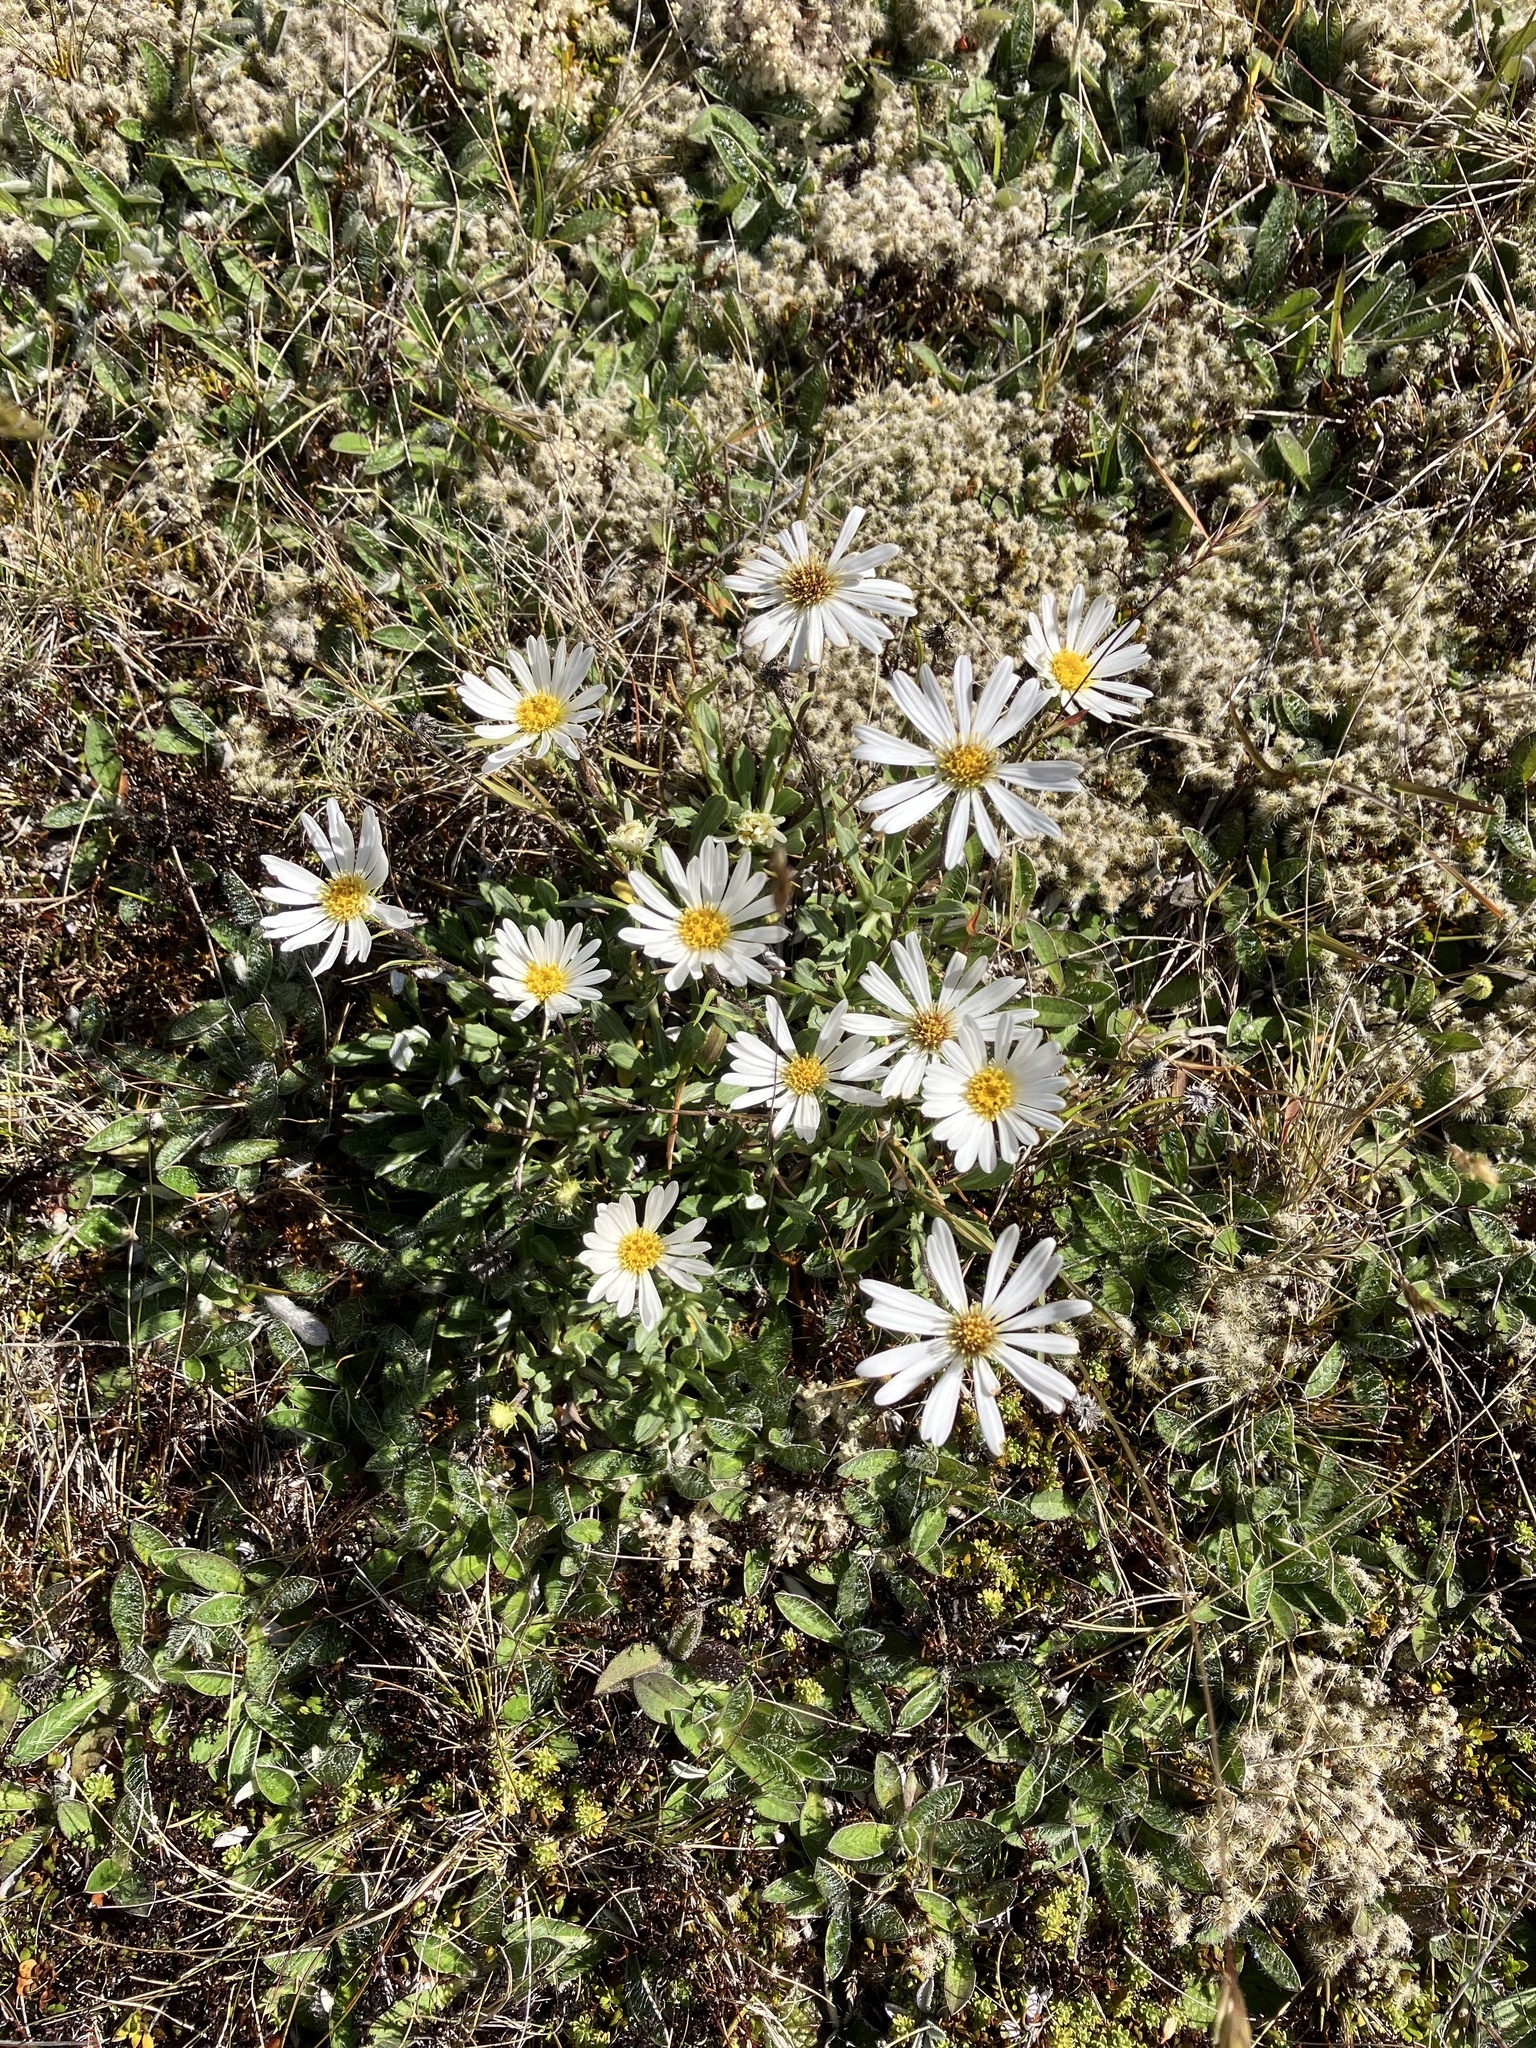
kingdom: Plantae
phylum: Tracheophyta
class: Magnoliopsida
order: Asterales
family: Asteraceae
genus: Celmisia
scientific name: Celmisia durietzii
